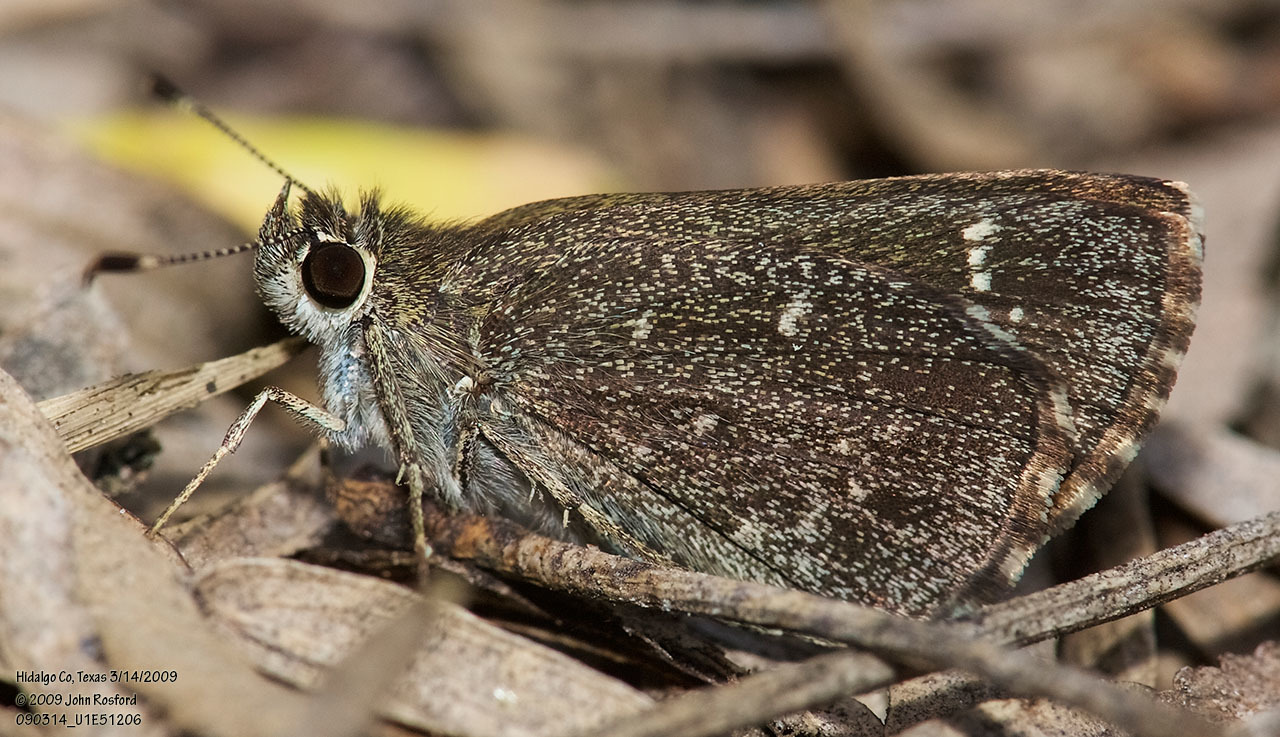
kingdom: Animalia
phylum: Arthropoda
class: Insecta
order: Lepidoptera
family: Hesperiidae
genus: Mastor
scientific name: Mastor celia
